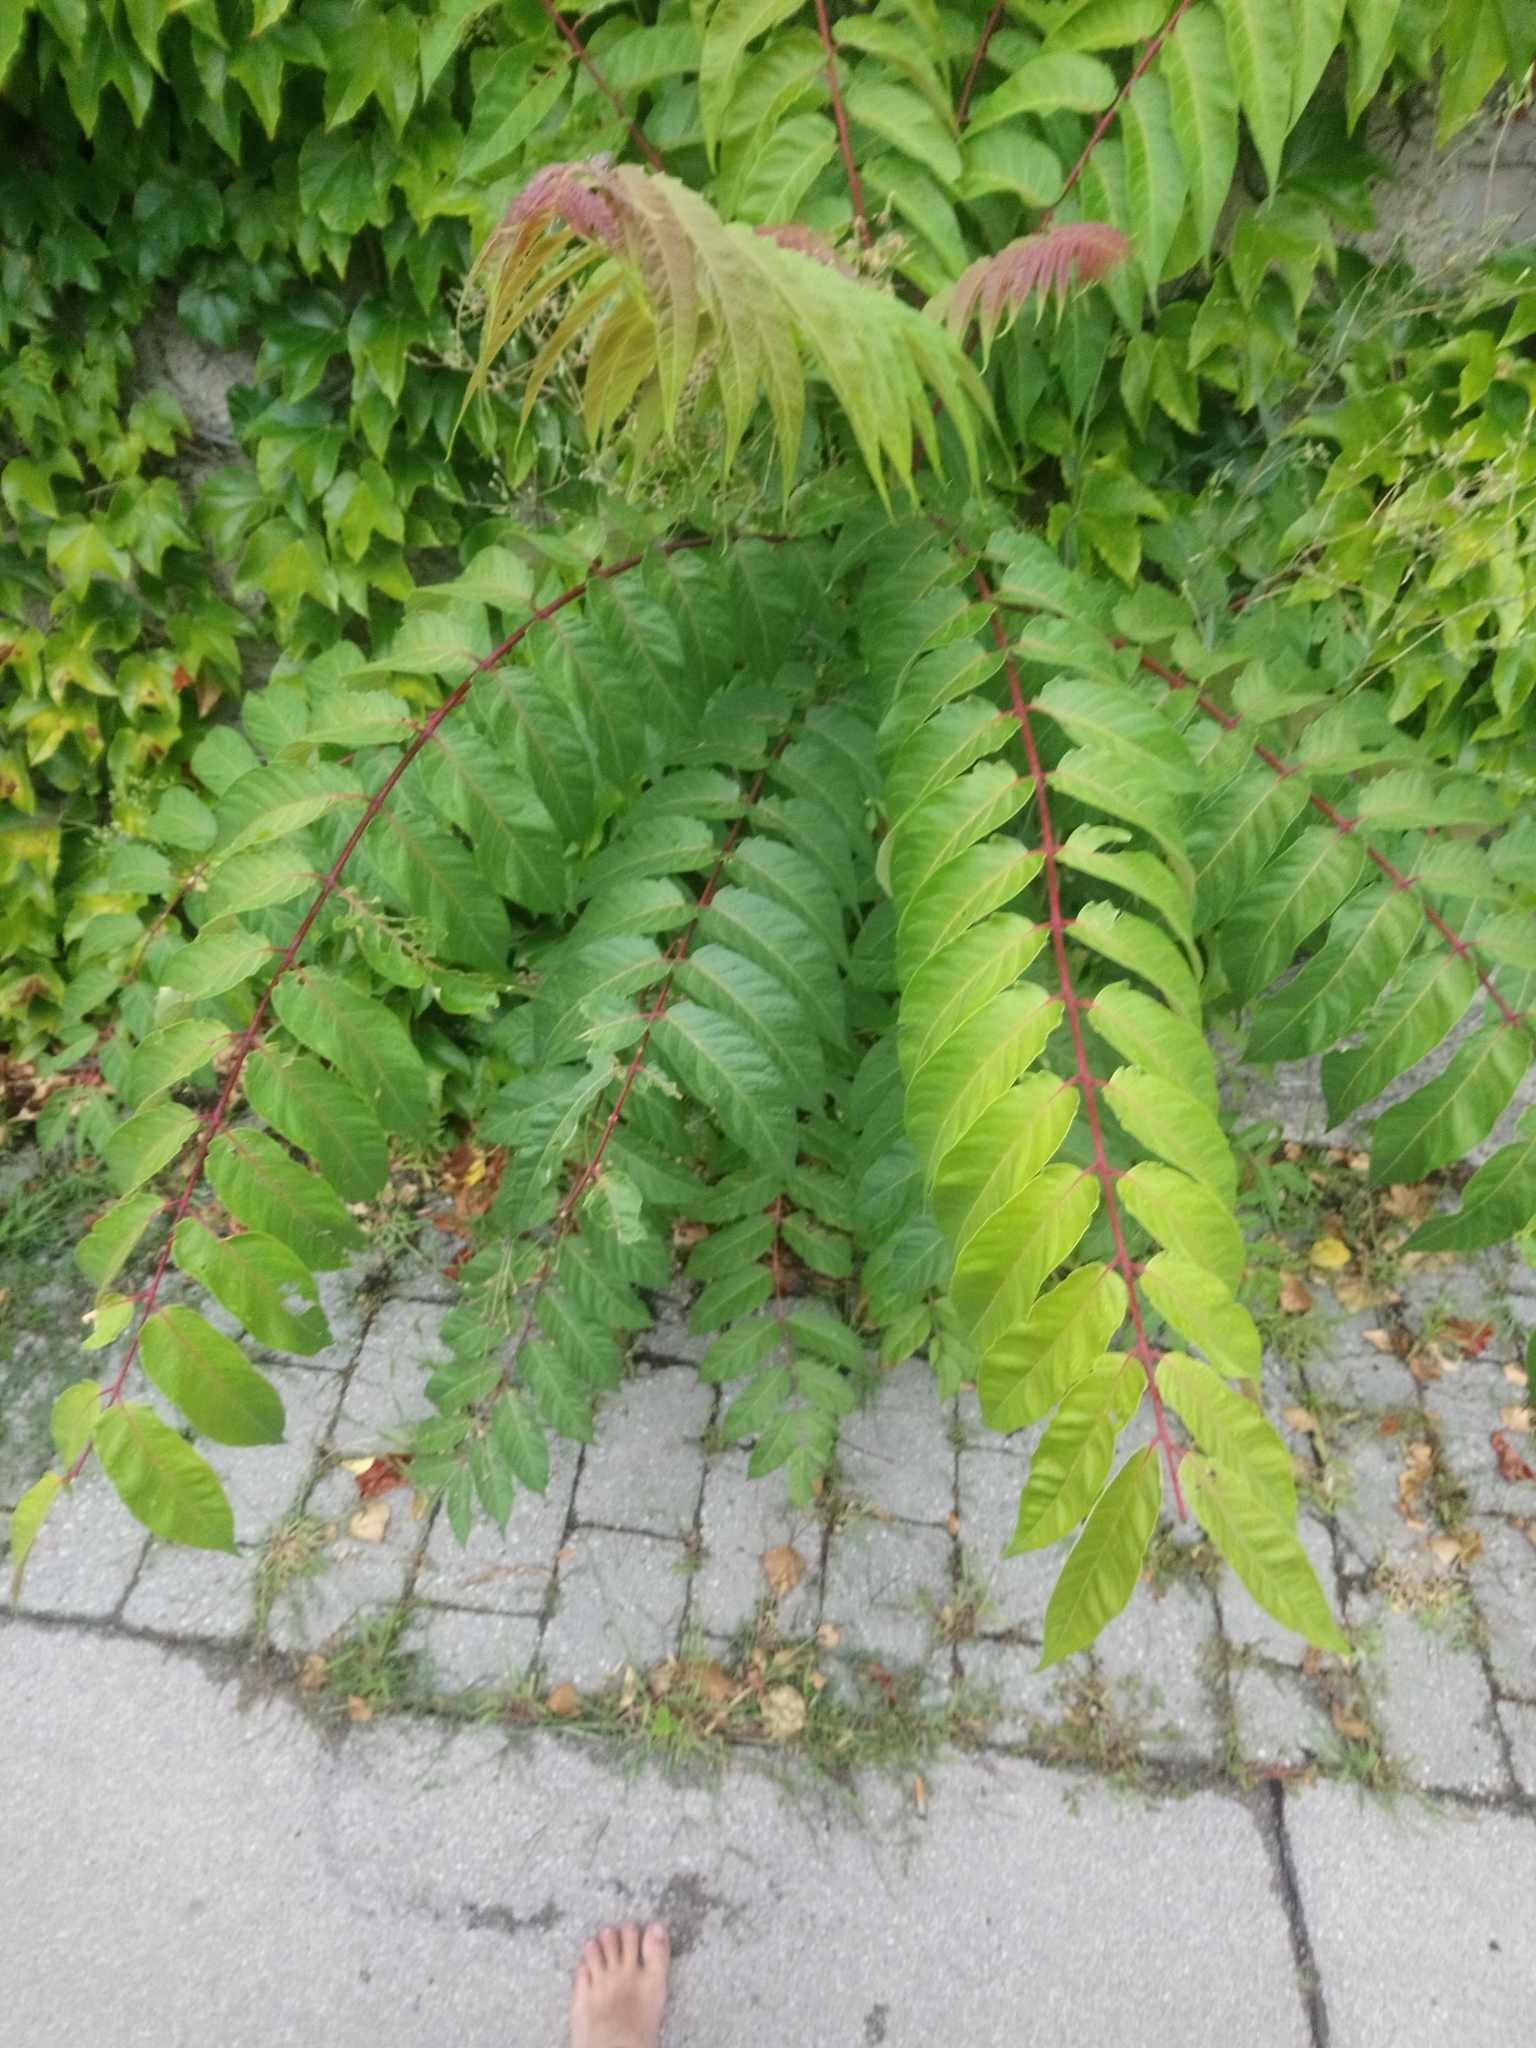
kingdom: Plantae
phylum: Tracheophyta
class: Magnoliopsida
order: Sapindales
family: Simaroubaceae
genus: Ailanthus
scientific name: Ailanthus altissima
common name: Tree-of-heaven
